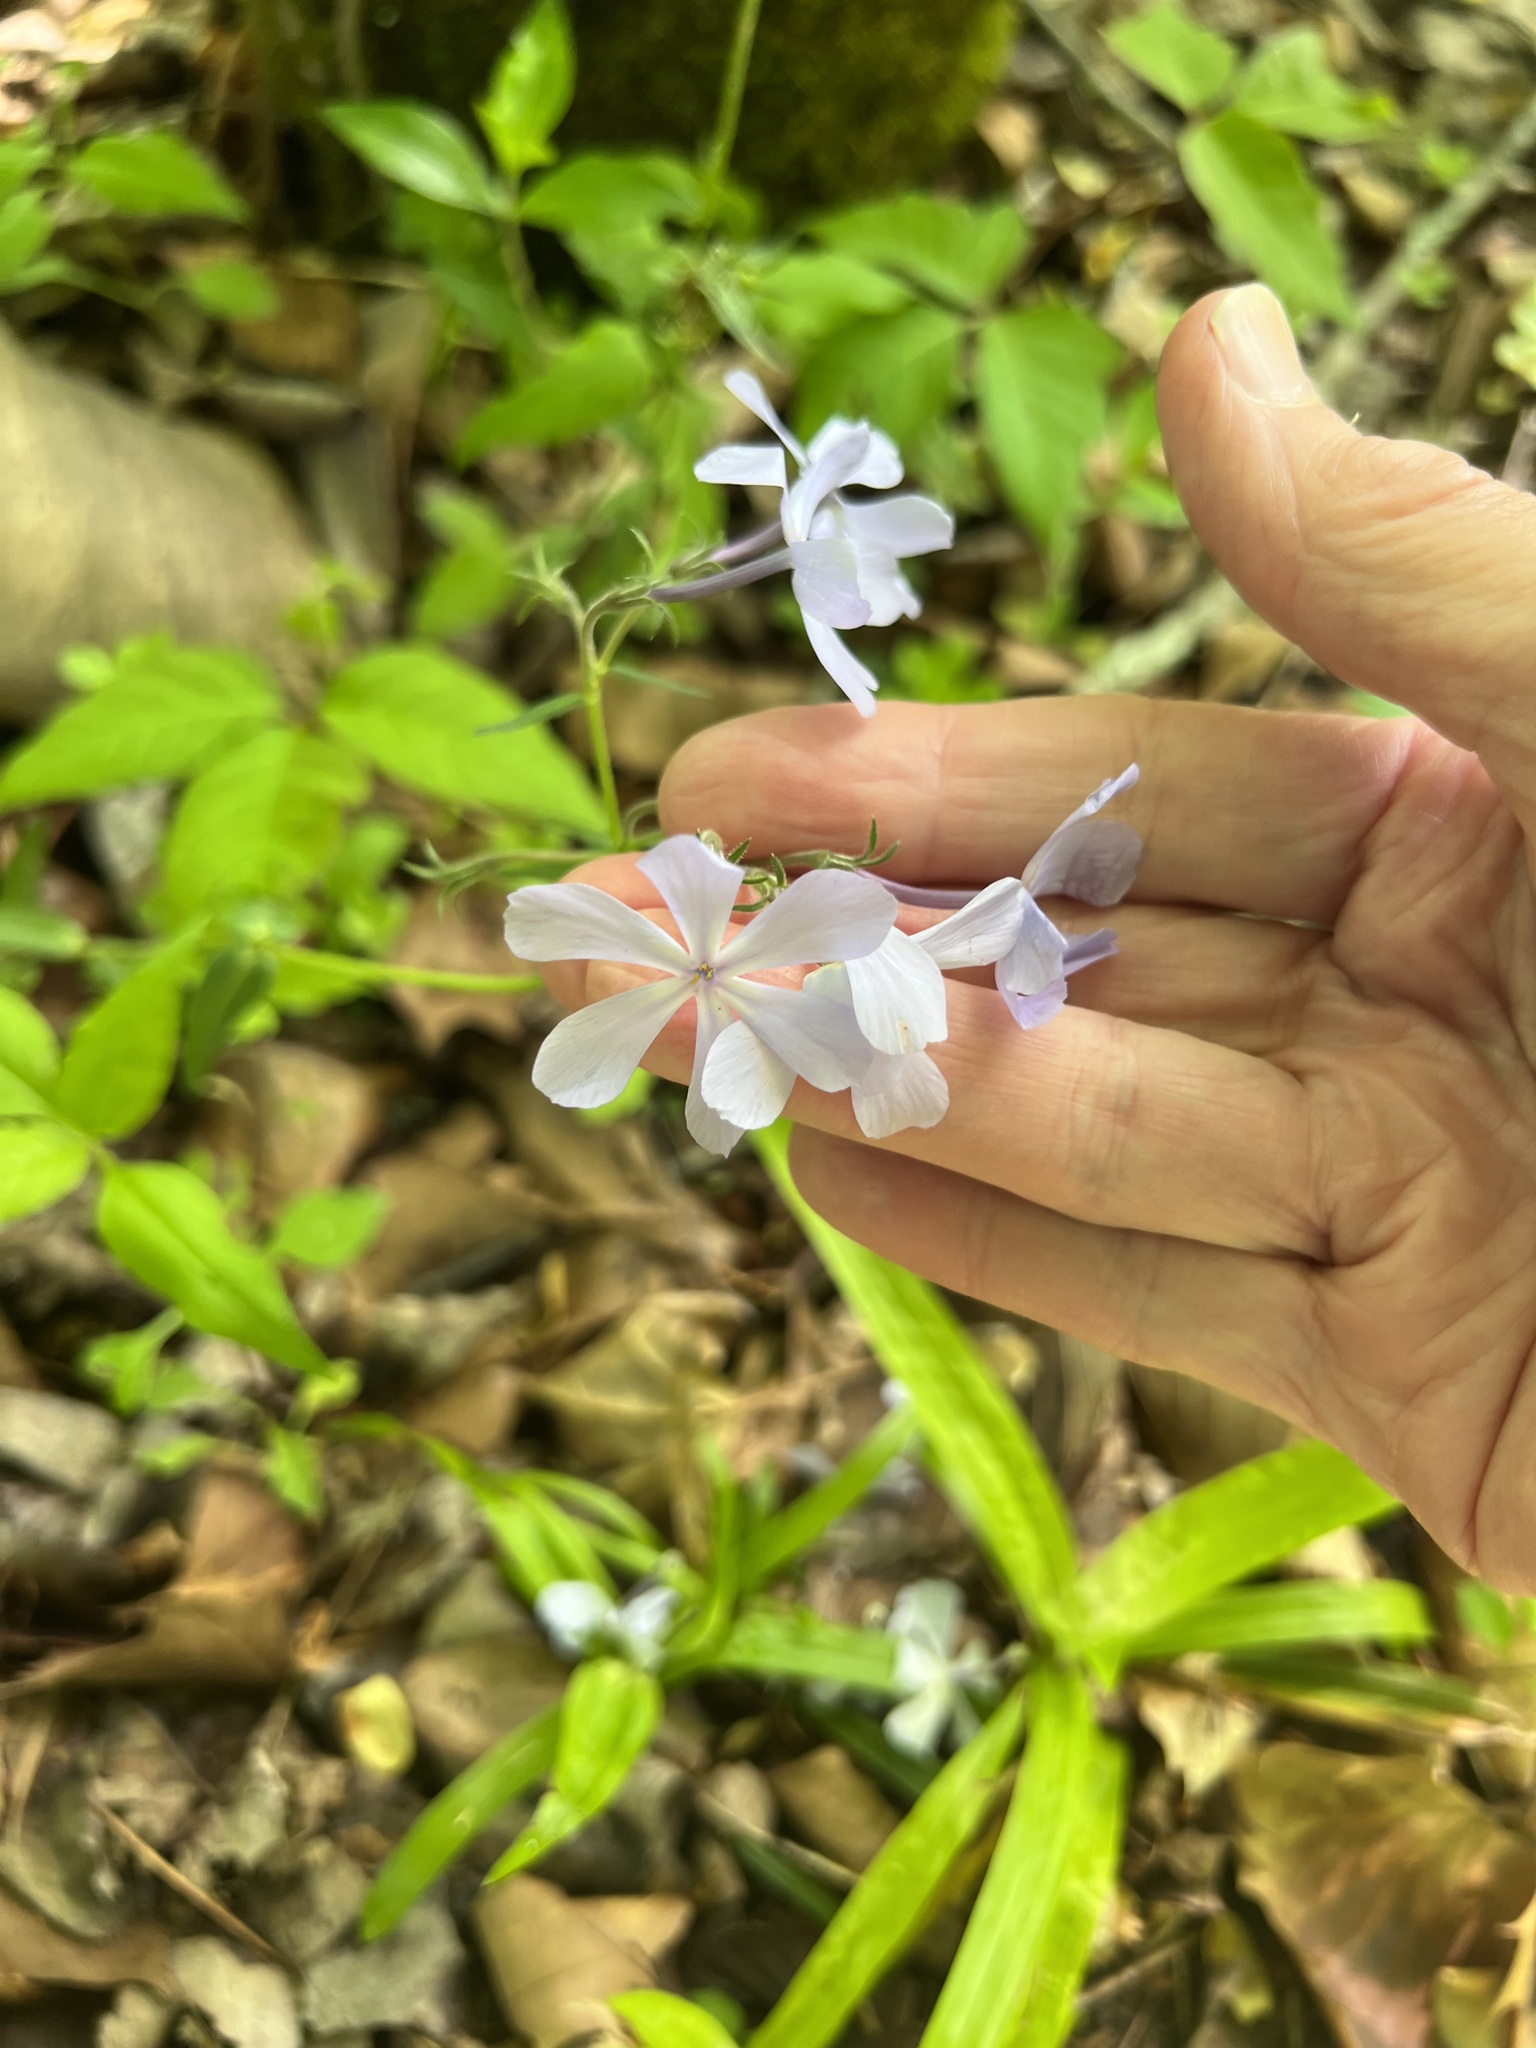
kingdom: Plantae
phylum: Tracheophyta
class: Magnoliopsida
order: Ericales
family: Polemoniaceae
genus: Phlox
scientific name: Phlox divaricata
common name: Blue phlox
